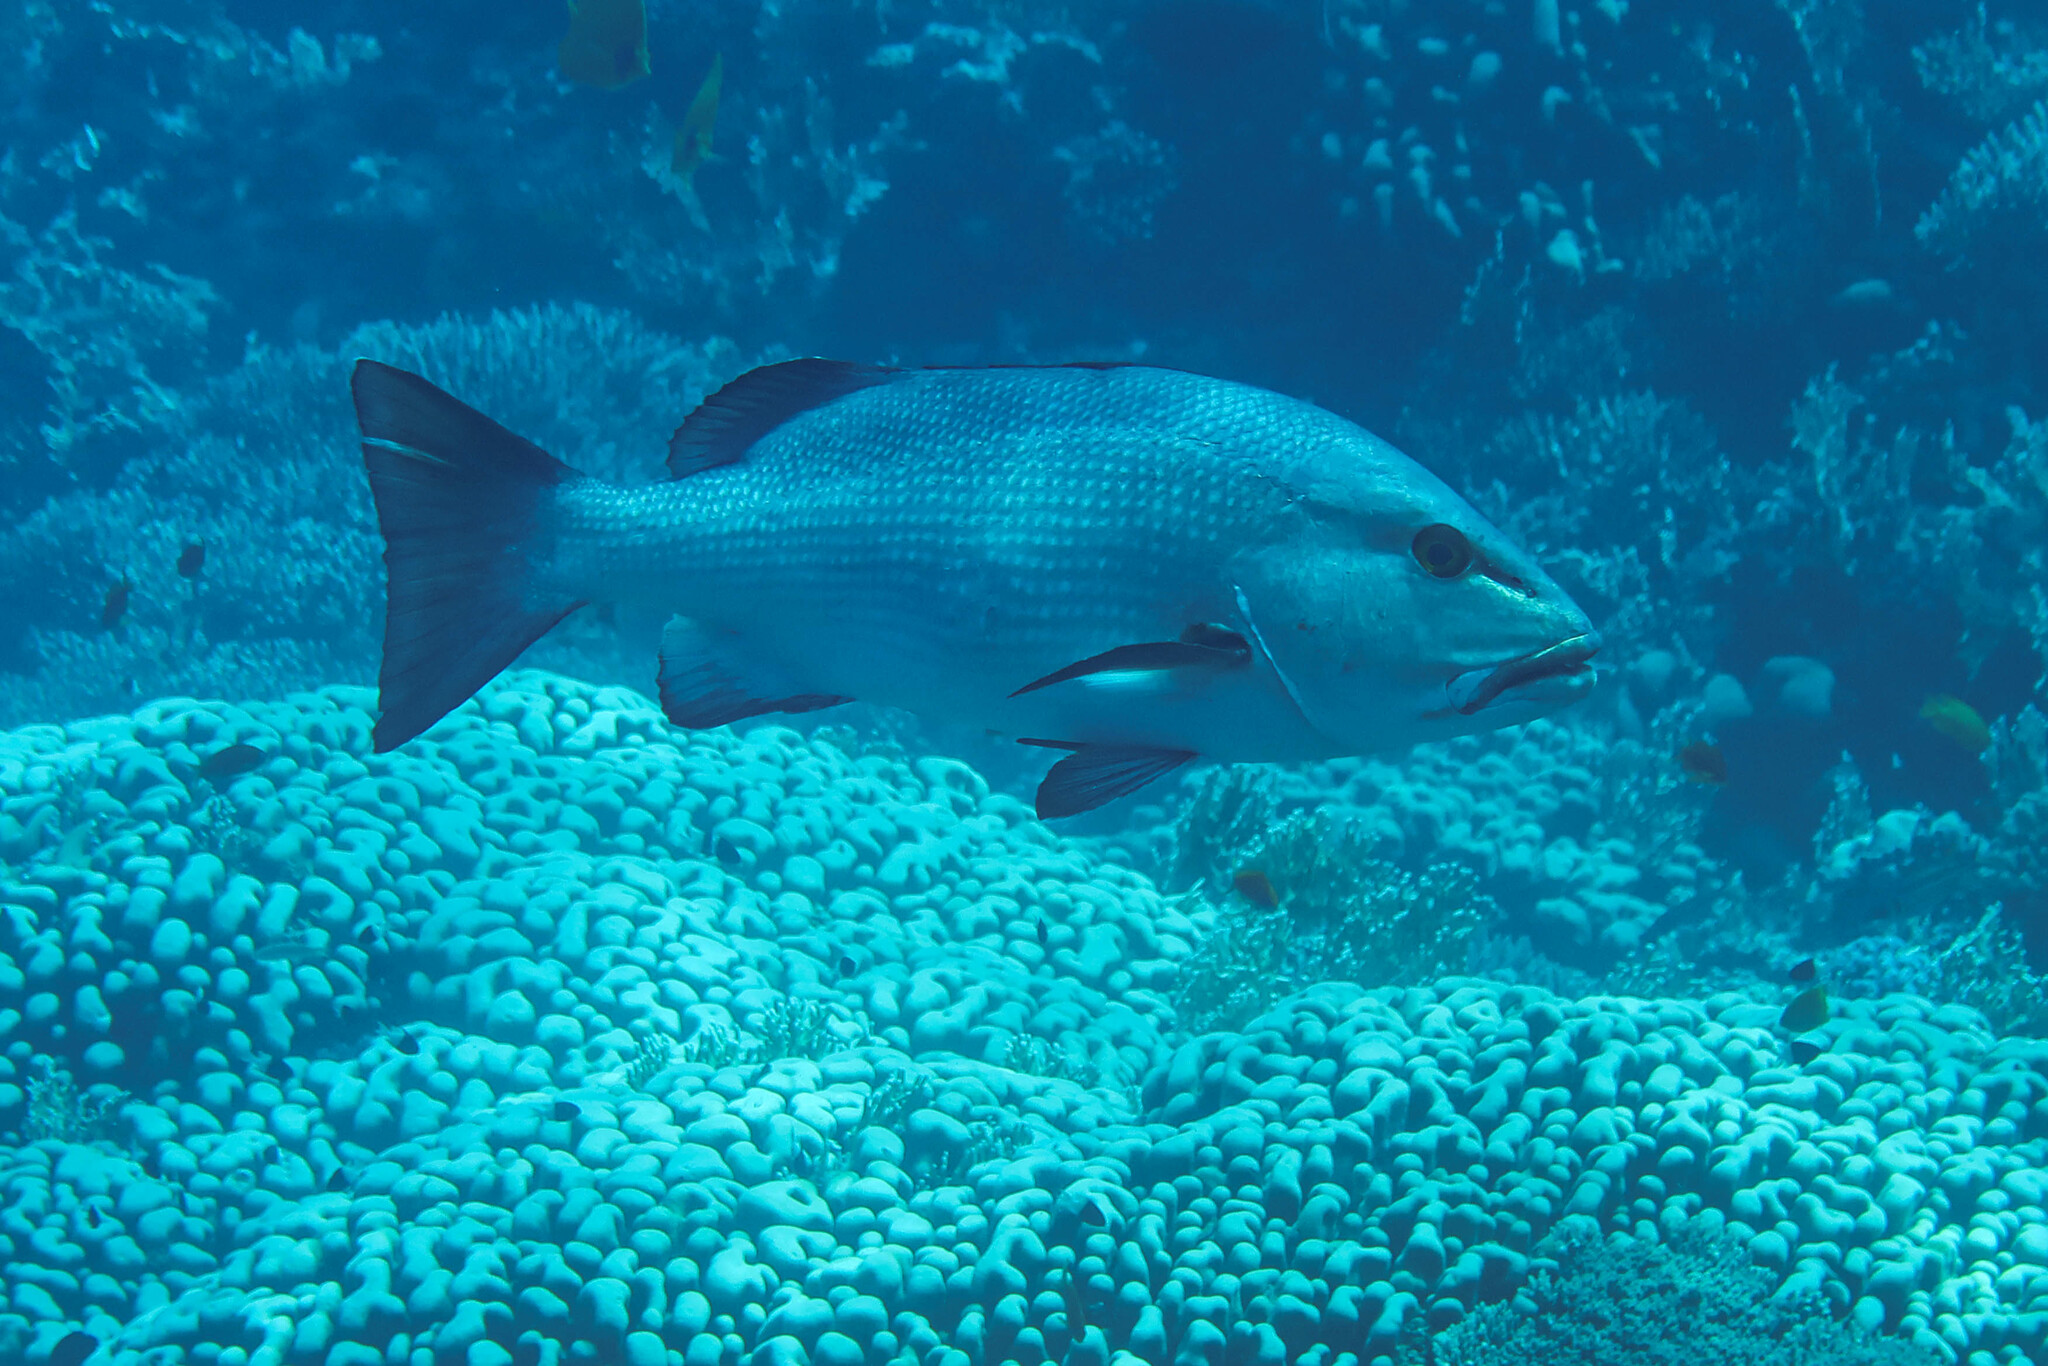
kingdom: Animalia
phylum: Chordata
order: Perciformes
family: Lutjanidae
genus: Lutjanus
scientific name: Lutjanus bohar
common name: Red bass
